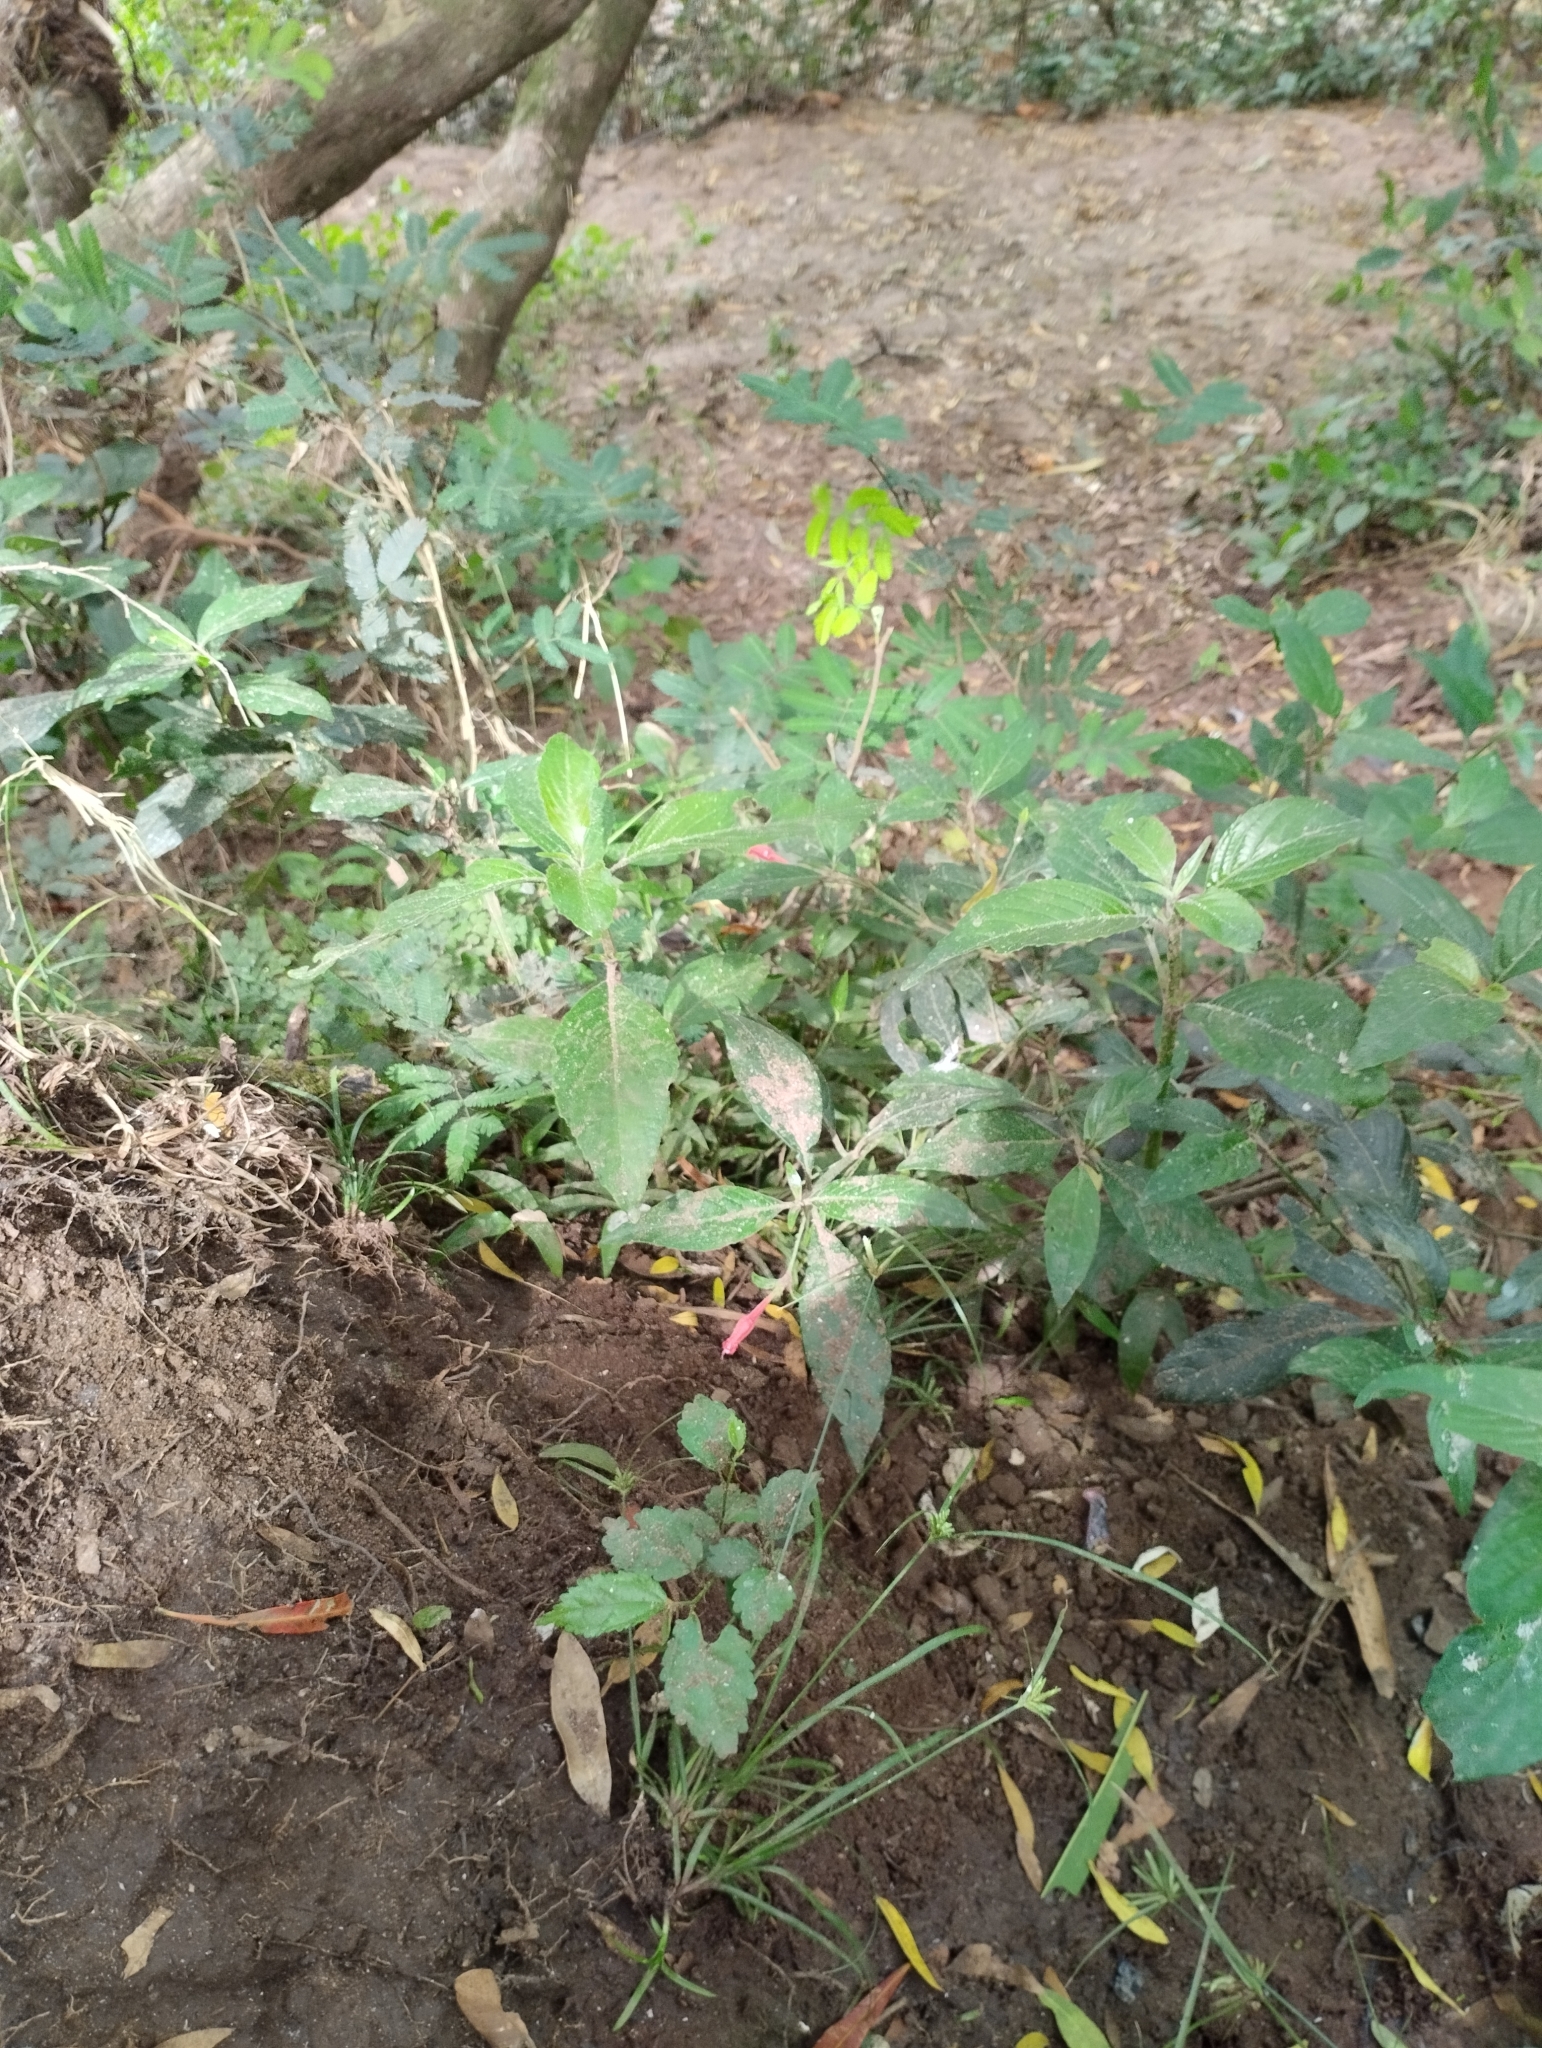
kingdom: Plantae
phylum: Tracheophyta
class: Magnoliopsida
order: Lamiales
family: Acanthaceae
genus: Ruellia
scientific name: Ruellia angustiflora
